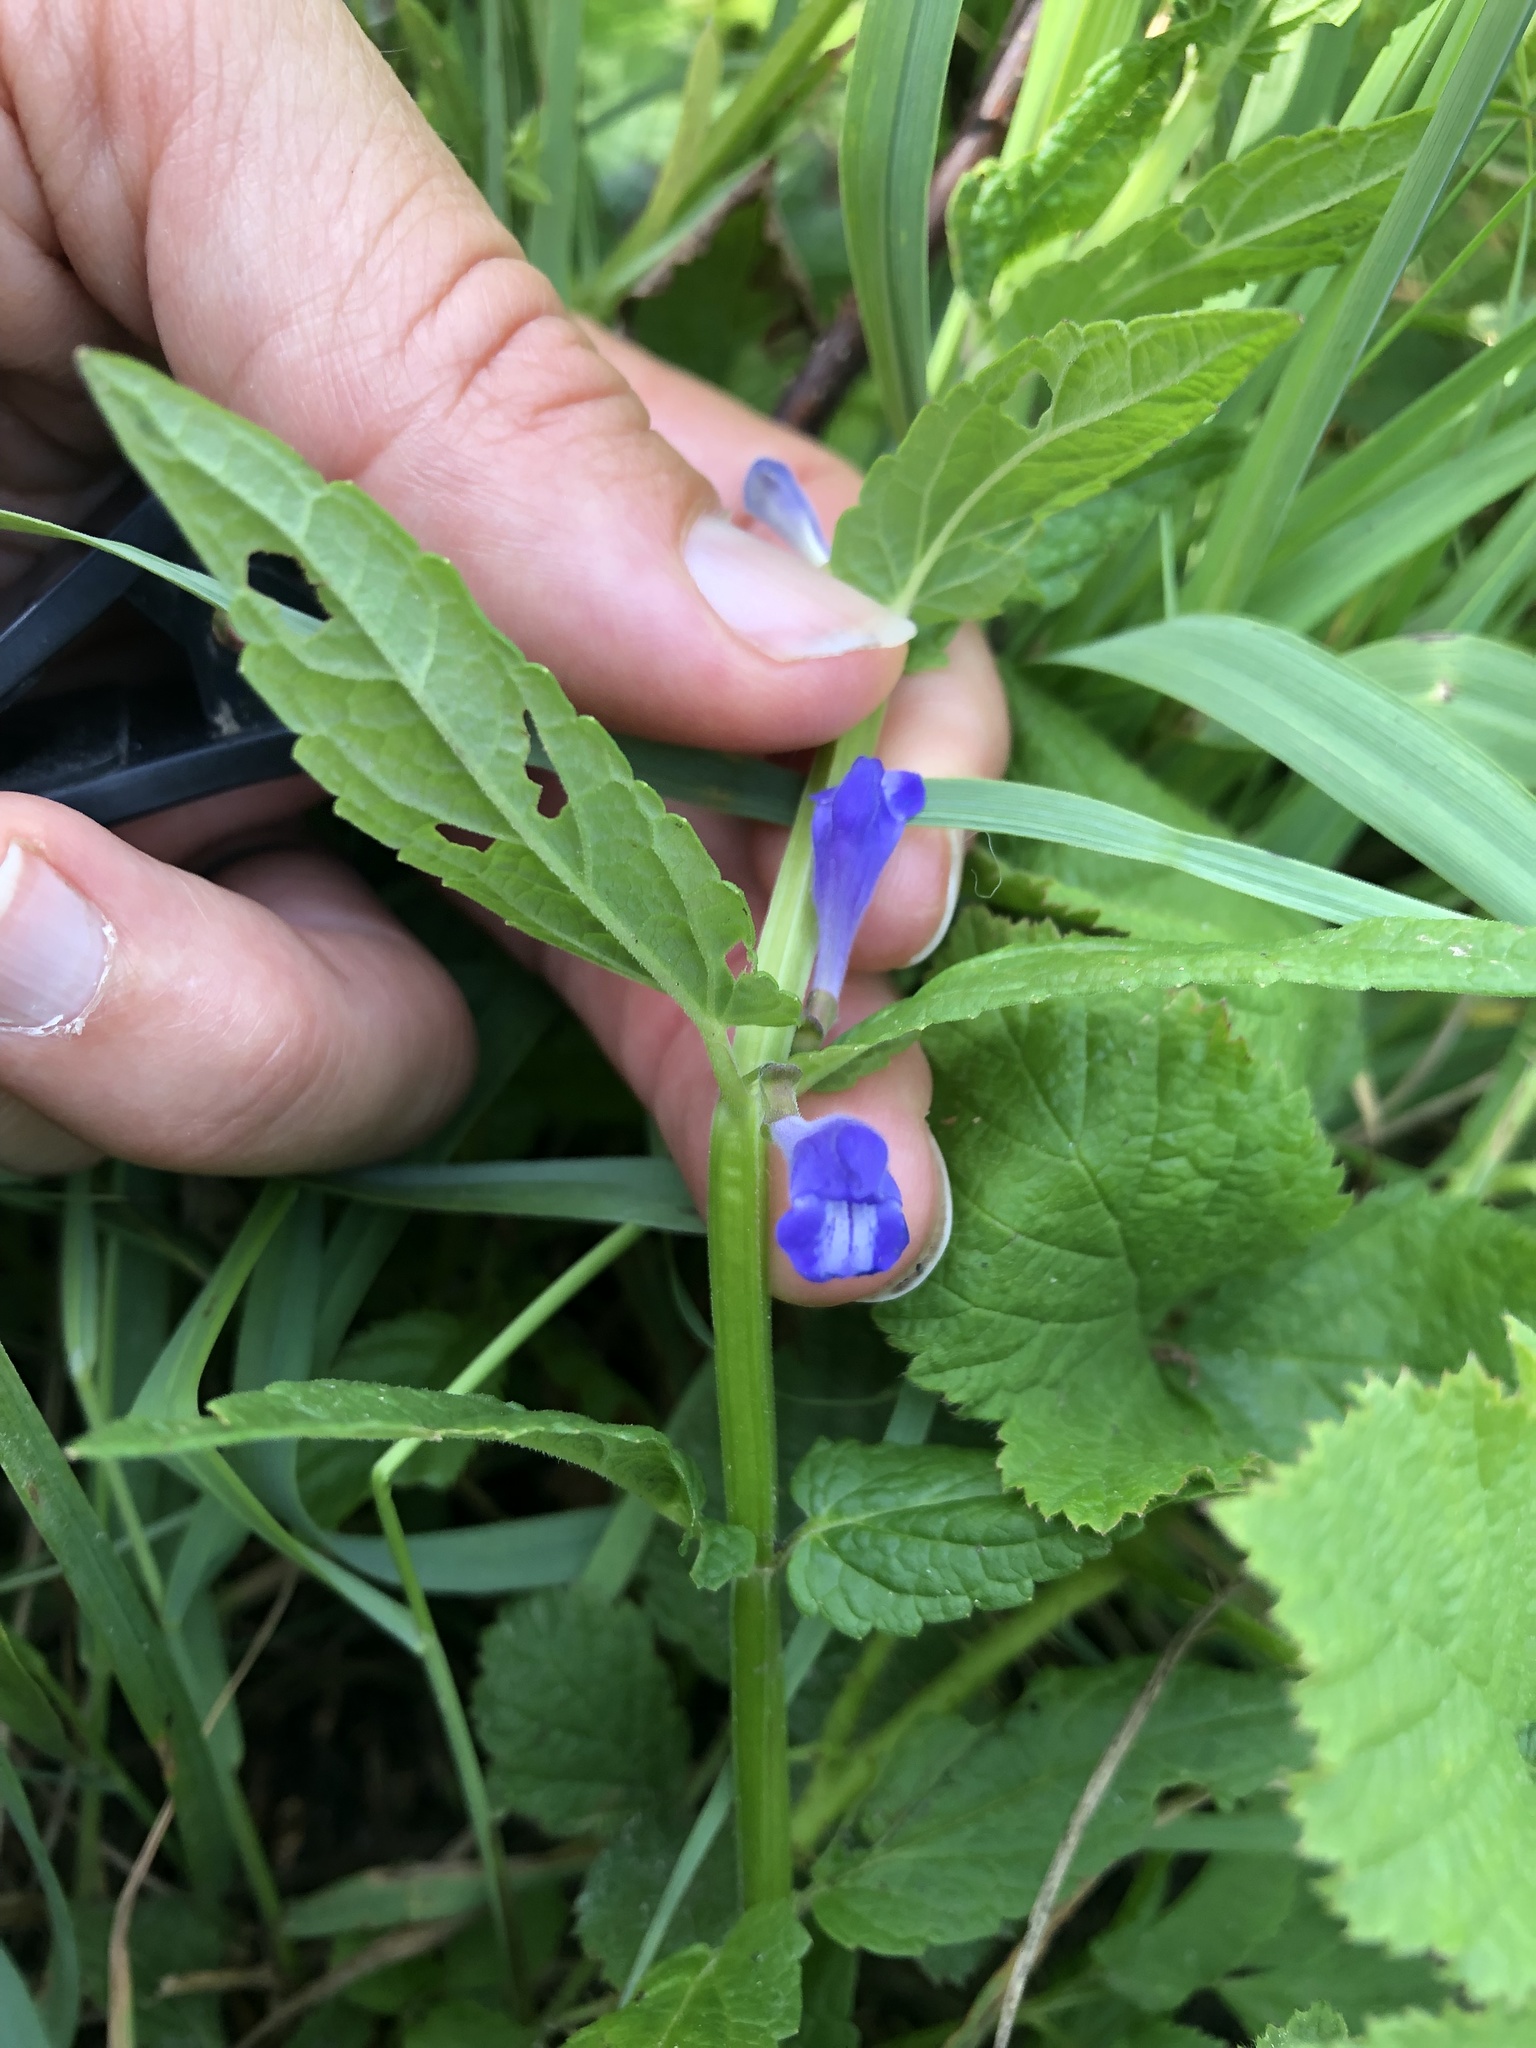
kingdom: Plantae
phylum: Tracheophyta
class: Magnoliopsida
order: Lamiales
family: Lamiaceae
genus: Scutellaria
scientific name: Scutellaria galericulata
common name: Skullcap
